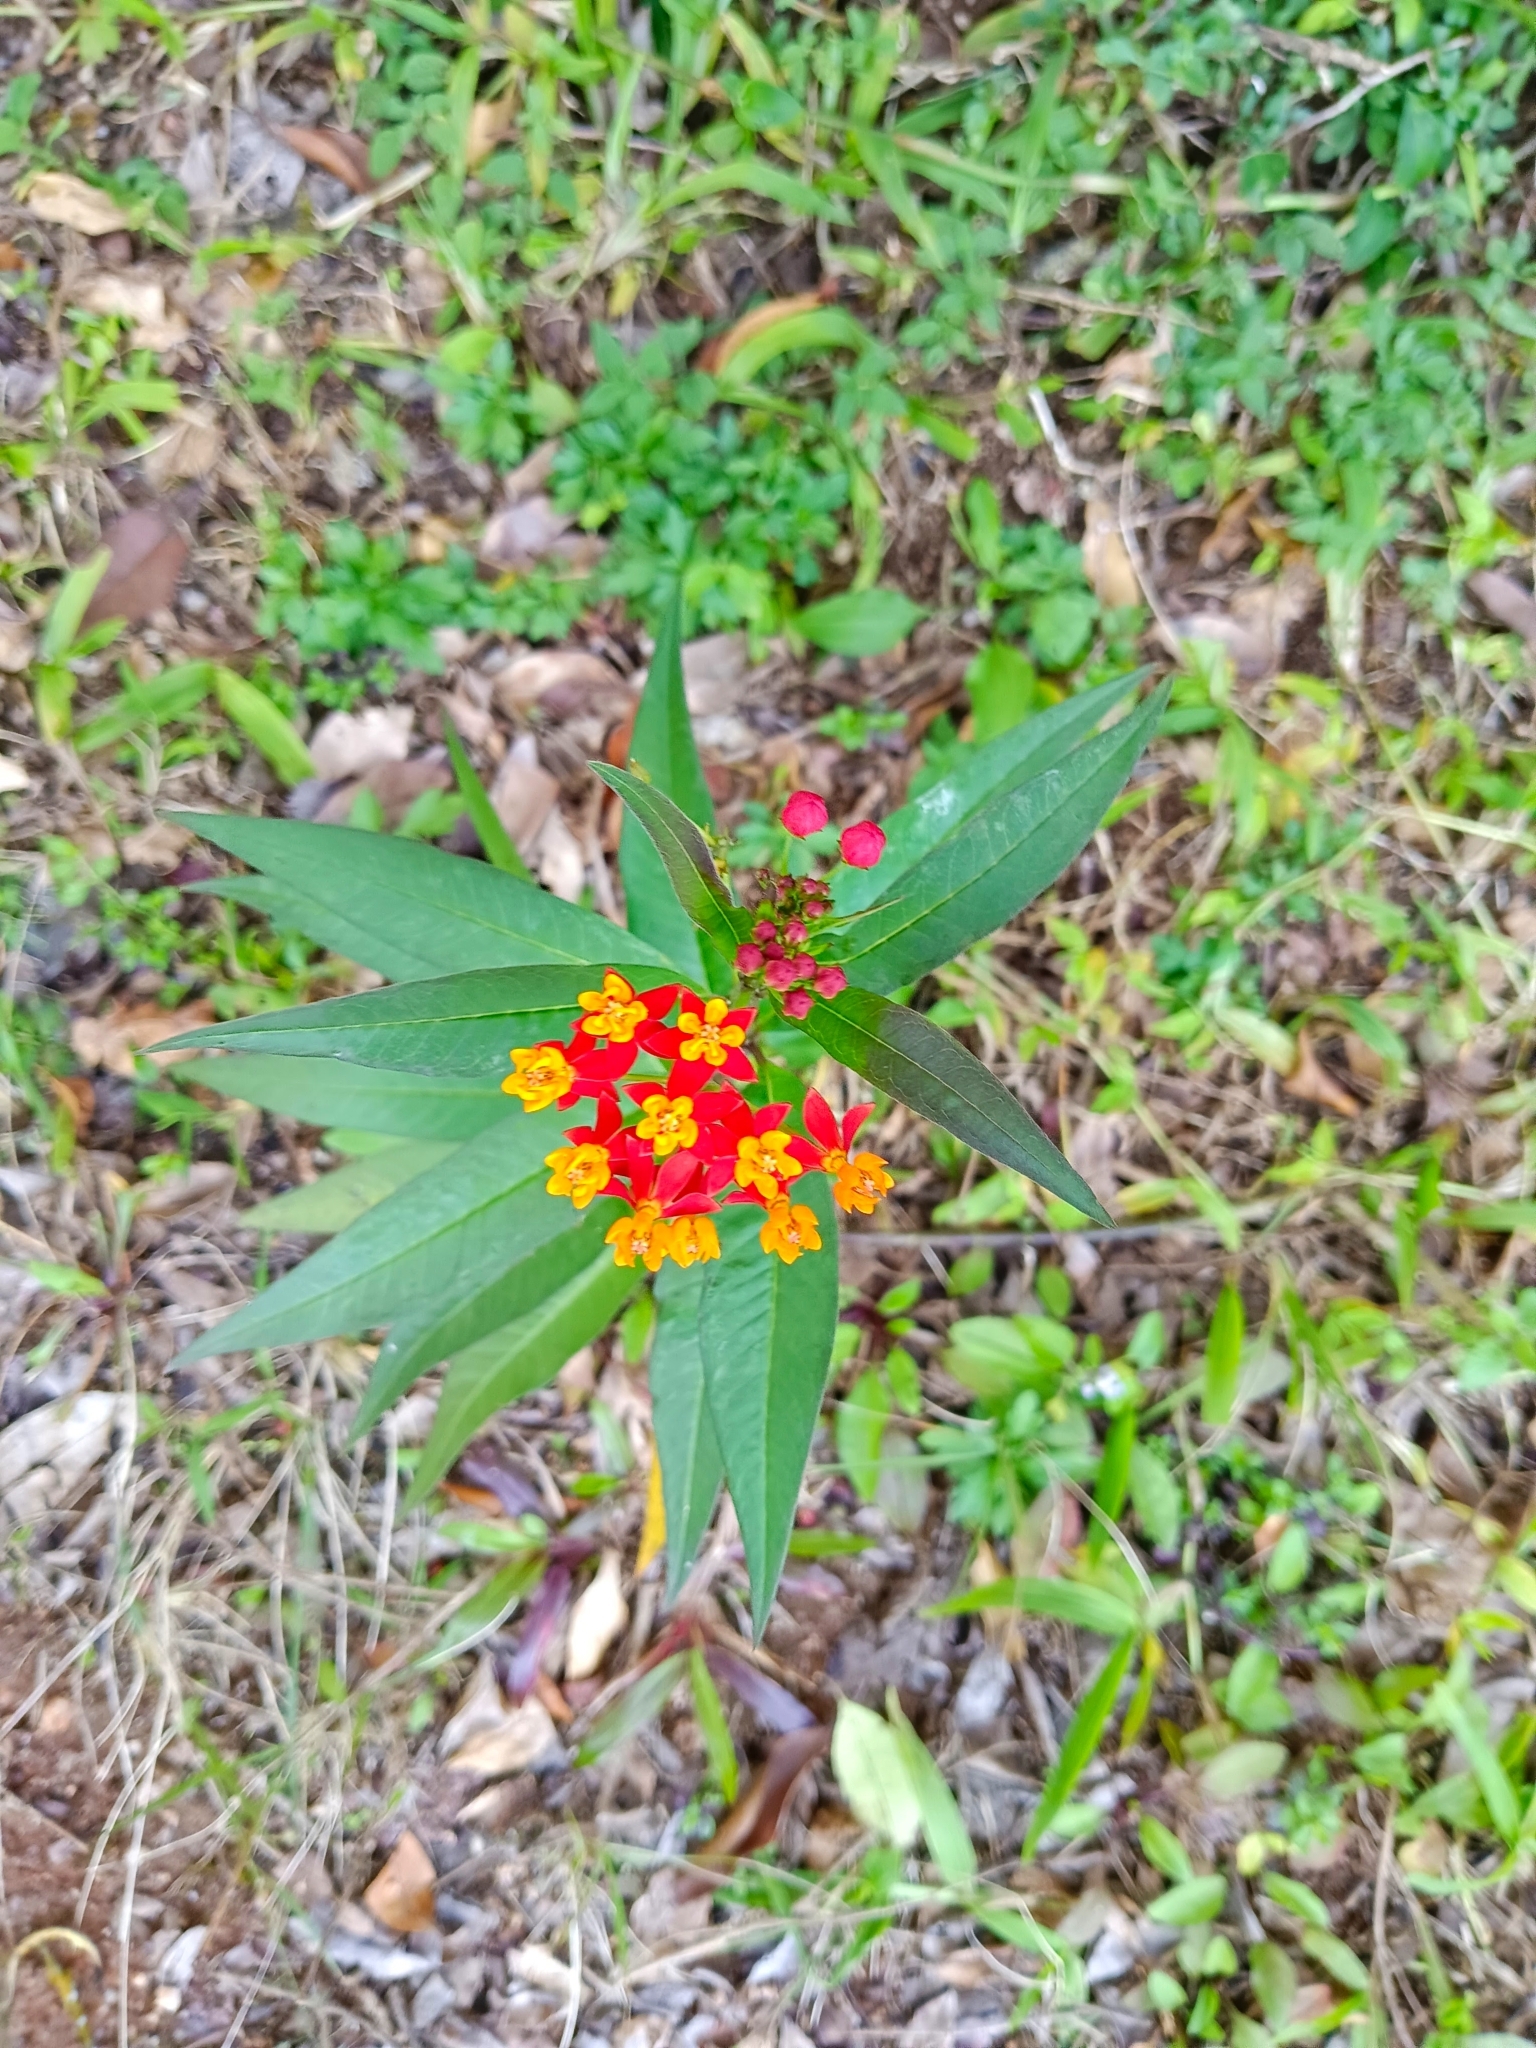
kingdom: Plantae
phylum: Tracheophyta
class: Magnoliopsida
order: Gentianales
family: Apocynaceae
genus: Asclepias
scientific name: Asclepias curassavica
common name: Bloodflower
